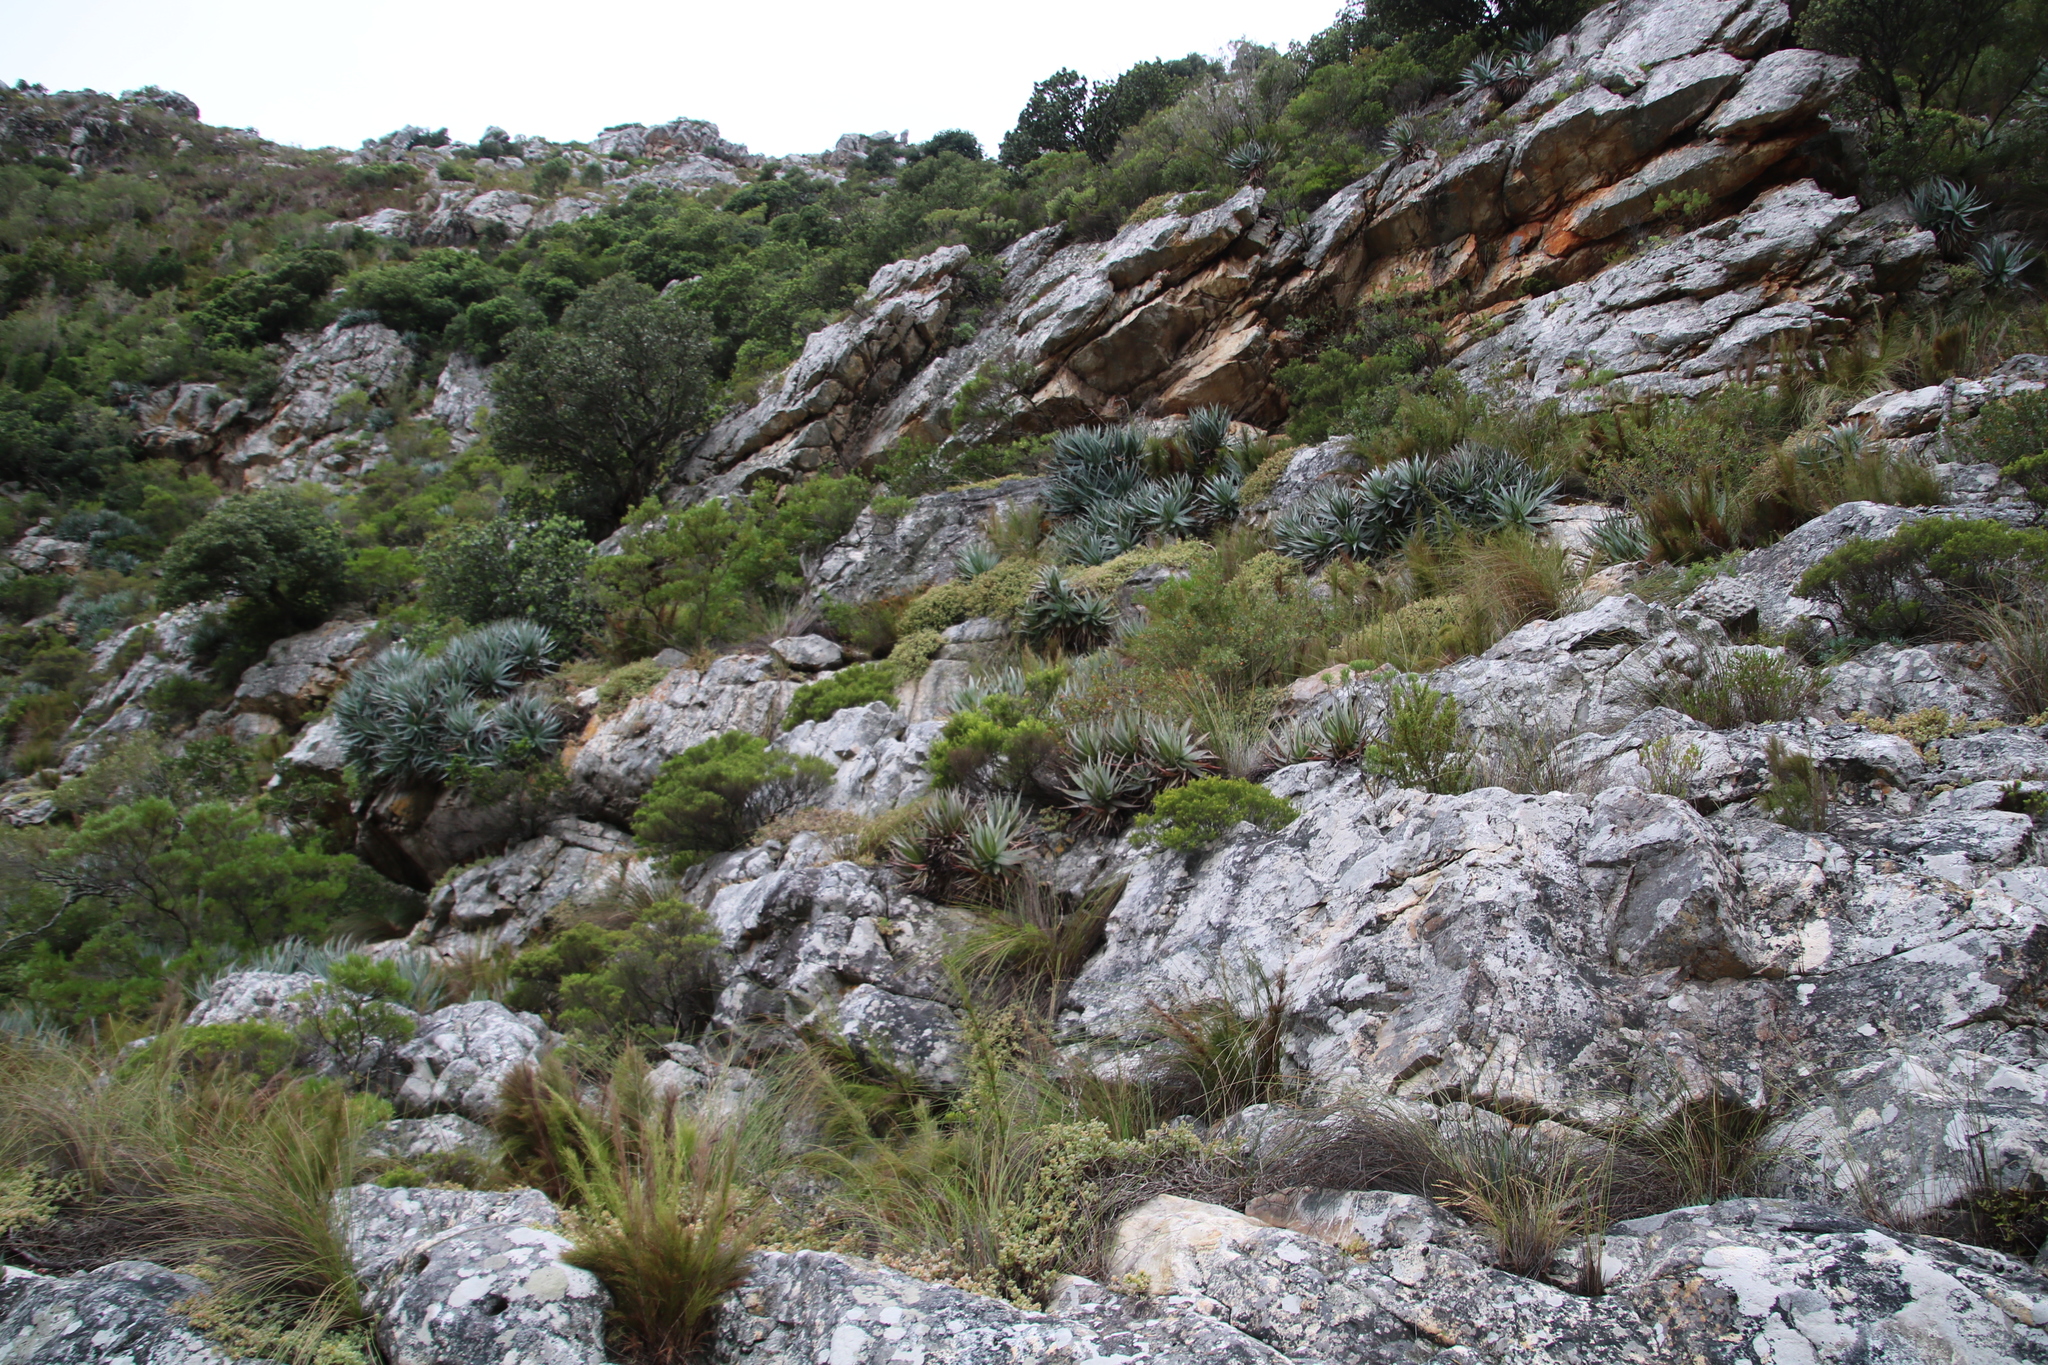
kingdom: Plantae
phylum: Tracheophyta
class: Liliopsida
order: Asparagales
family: Asphodelaceae
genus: Aloe
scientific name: Aloe succotrina
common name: Bombay aloe
